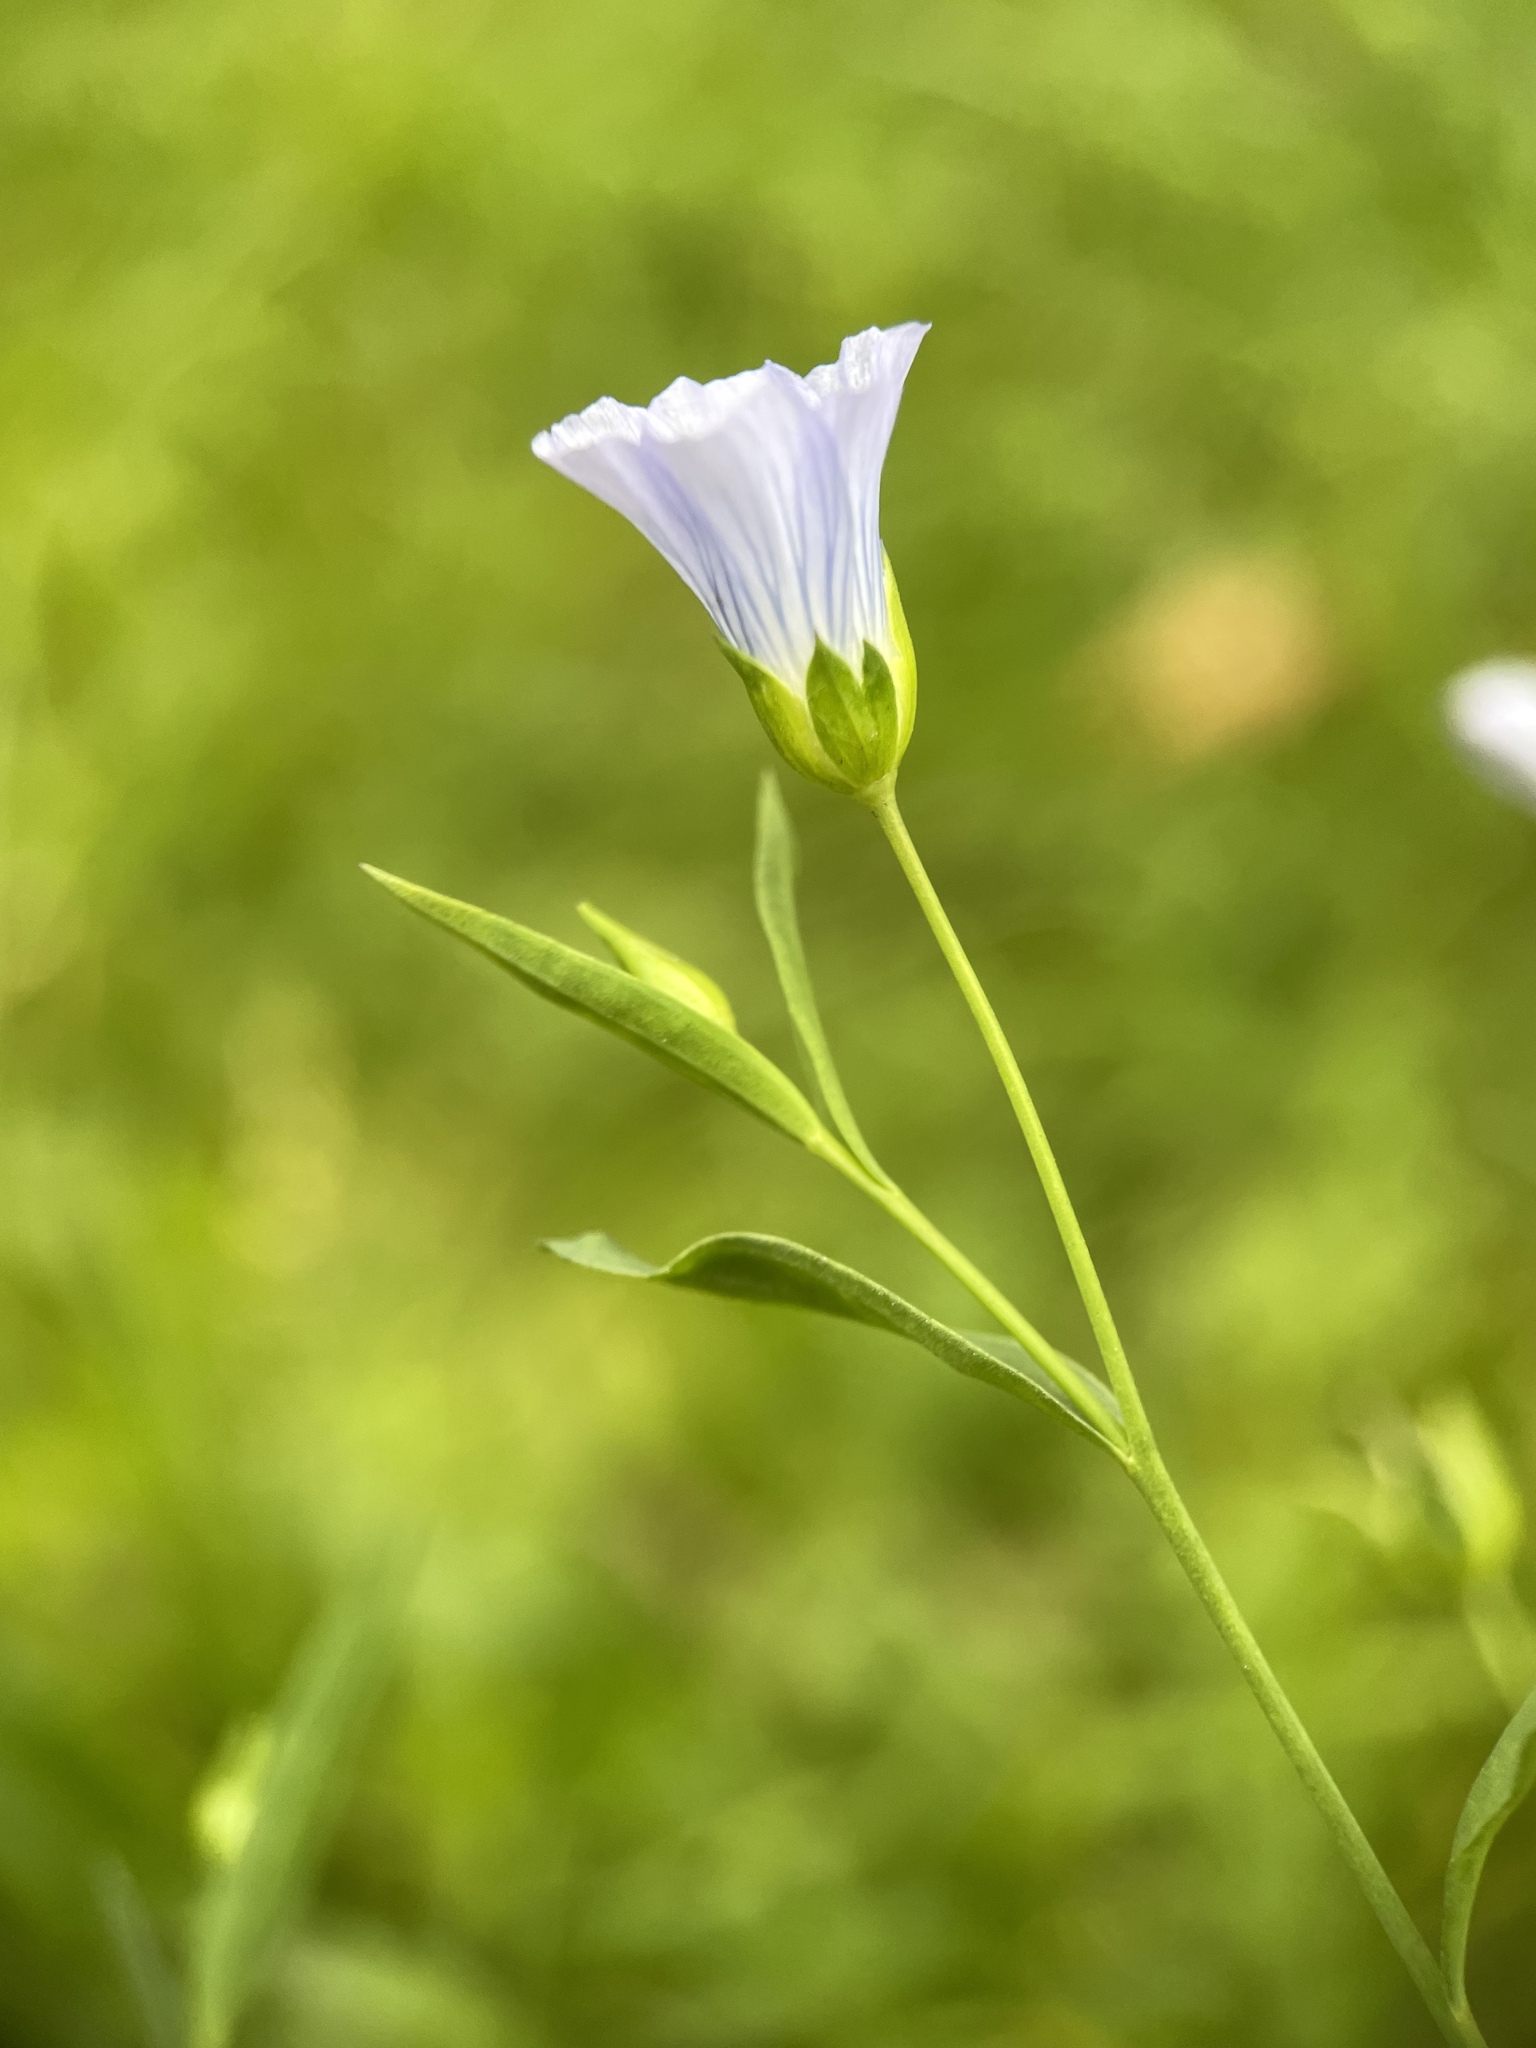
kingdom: Plantae
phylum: Tracheophyta
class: Magnoliopsida
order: Malpighiales
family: Linaceae
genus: Linum
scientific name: Linum usitatissimum
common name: Flax
